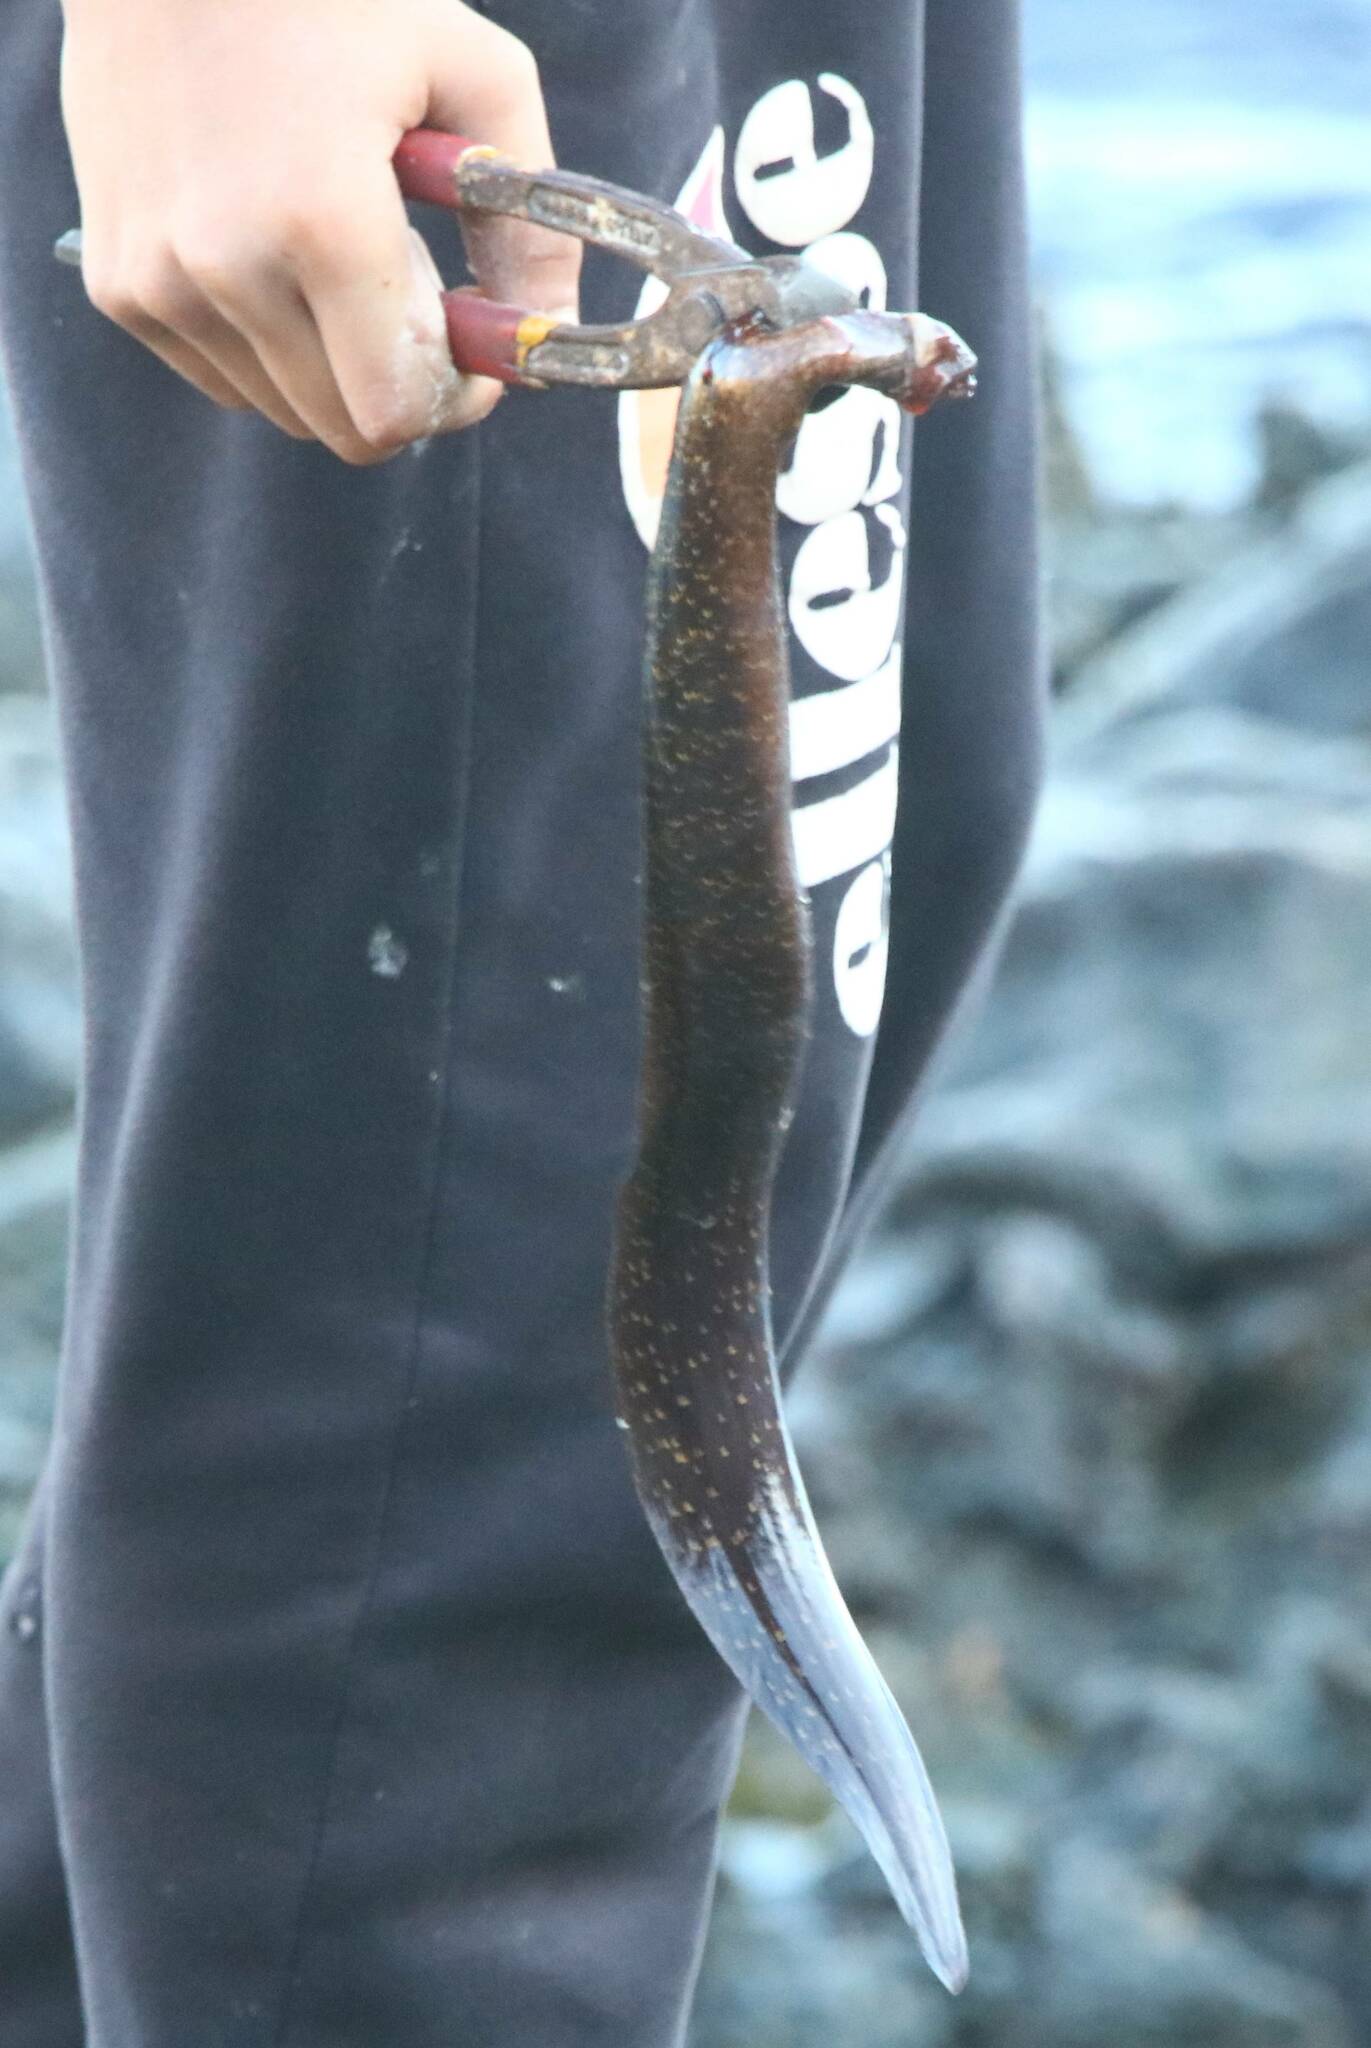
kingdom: Animalia
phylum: Chordata
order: Anguilliformes
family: Muraenidae
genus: Muraena
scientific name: Muraena helena
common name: Mediterranean moray
